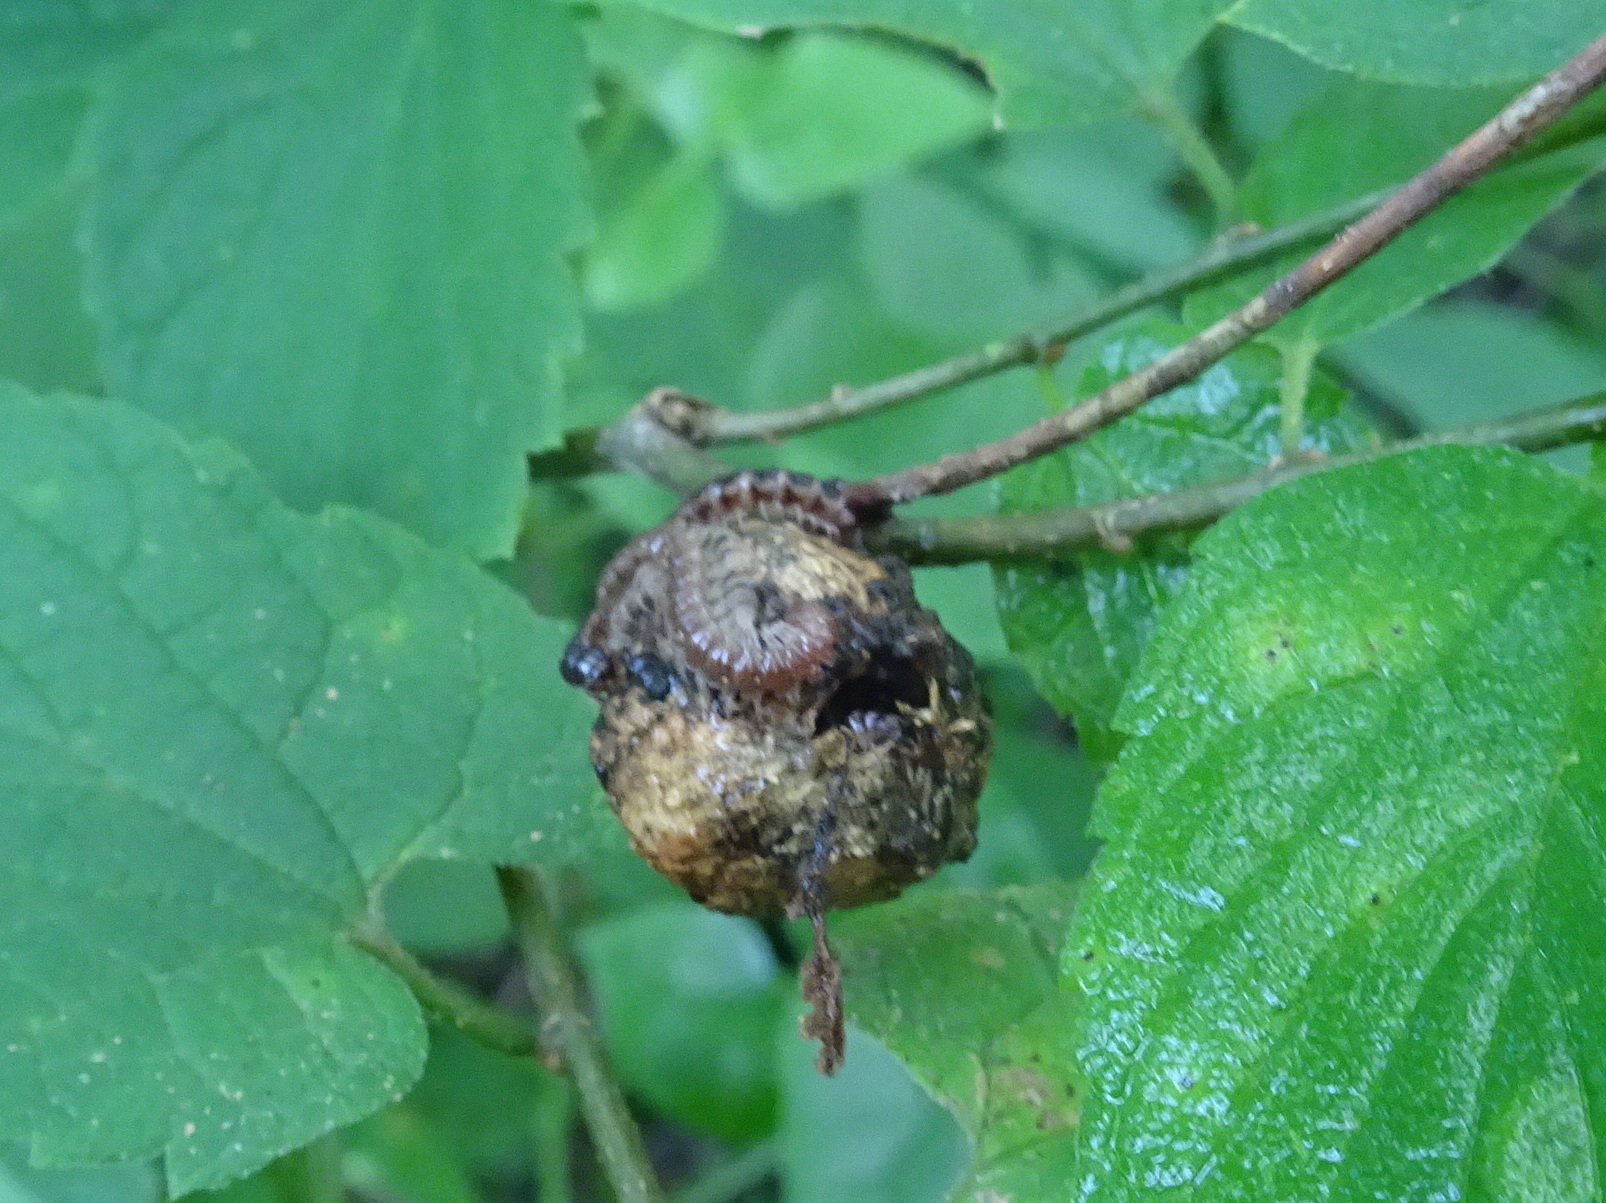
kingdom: Animalia
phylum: Arthropoda
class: Diplopoda
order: Polydesmida
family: Paradoxosomatidae
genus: Oxidus
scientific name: Oxidus gracilis
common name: Greenhouse millipede
